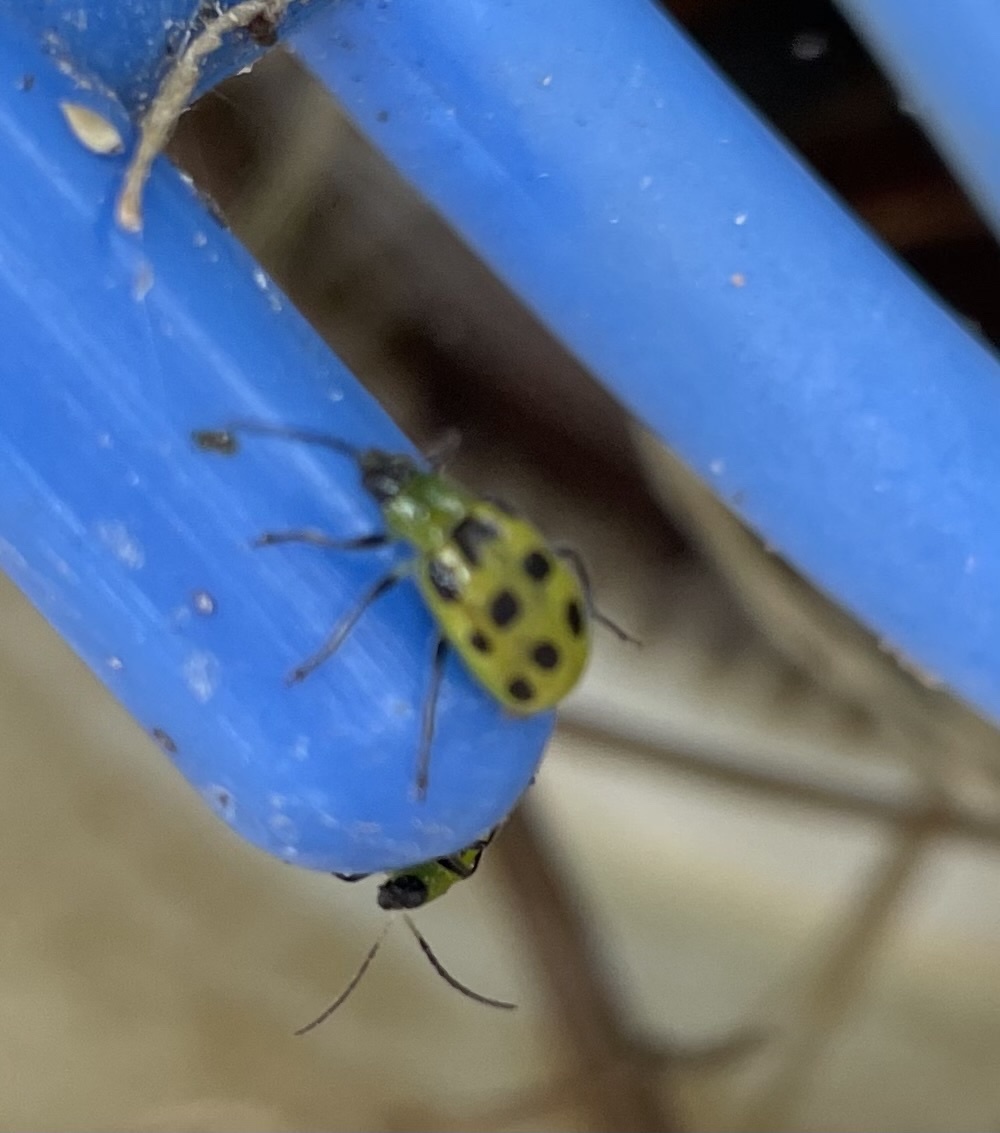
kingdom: Animalia
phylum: Arthropoda
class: Insecta
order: Coleoptera
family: Chrysomelidae
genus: Diabrotica
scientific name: Diabrotica undecimpunctata
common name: Spotted cucumber beetle
